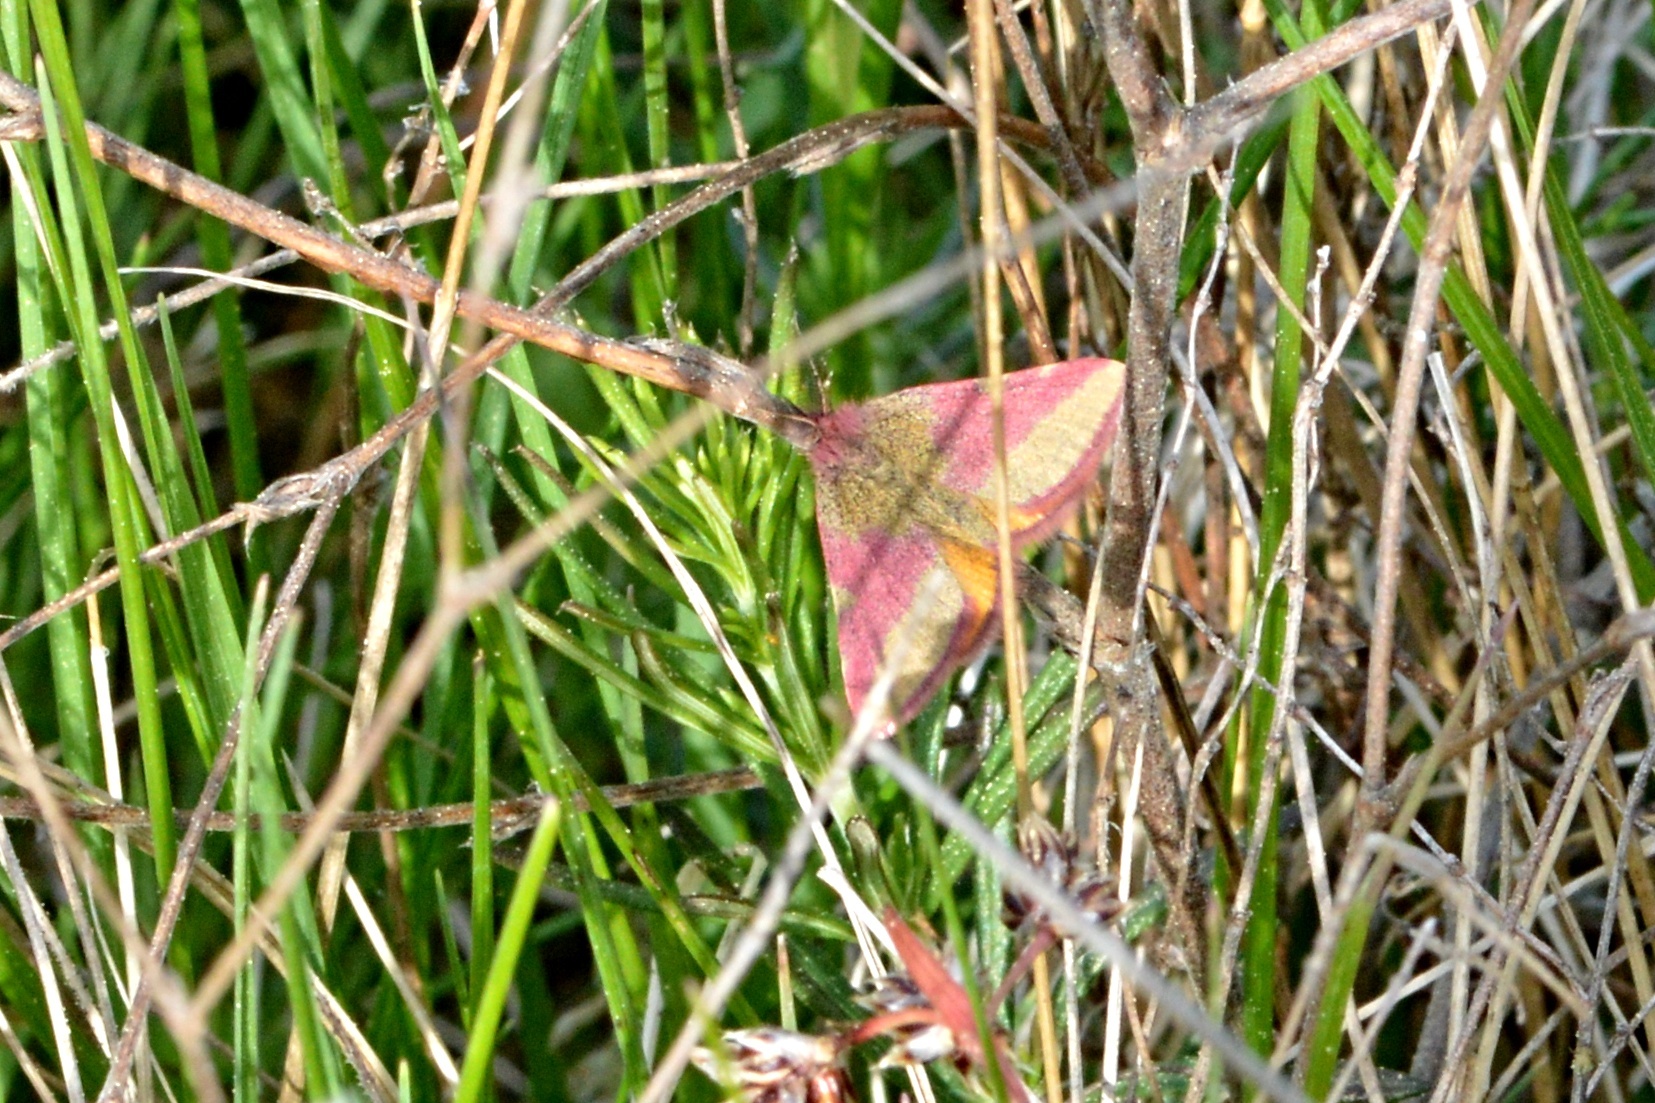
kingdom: Animalia
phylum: Arthropoda
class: Insecta
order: Lepidoptera
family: Geometridae
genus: Lythria
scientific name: Lythria cruentaria
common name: Purple-barred yellow
